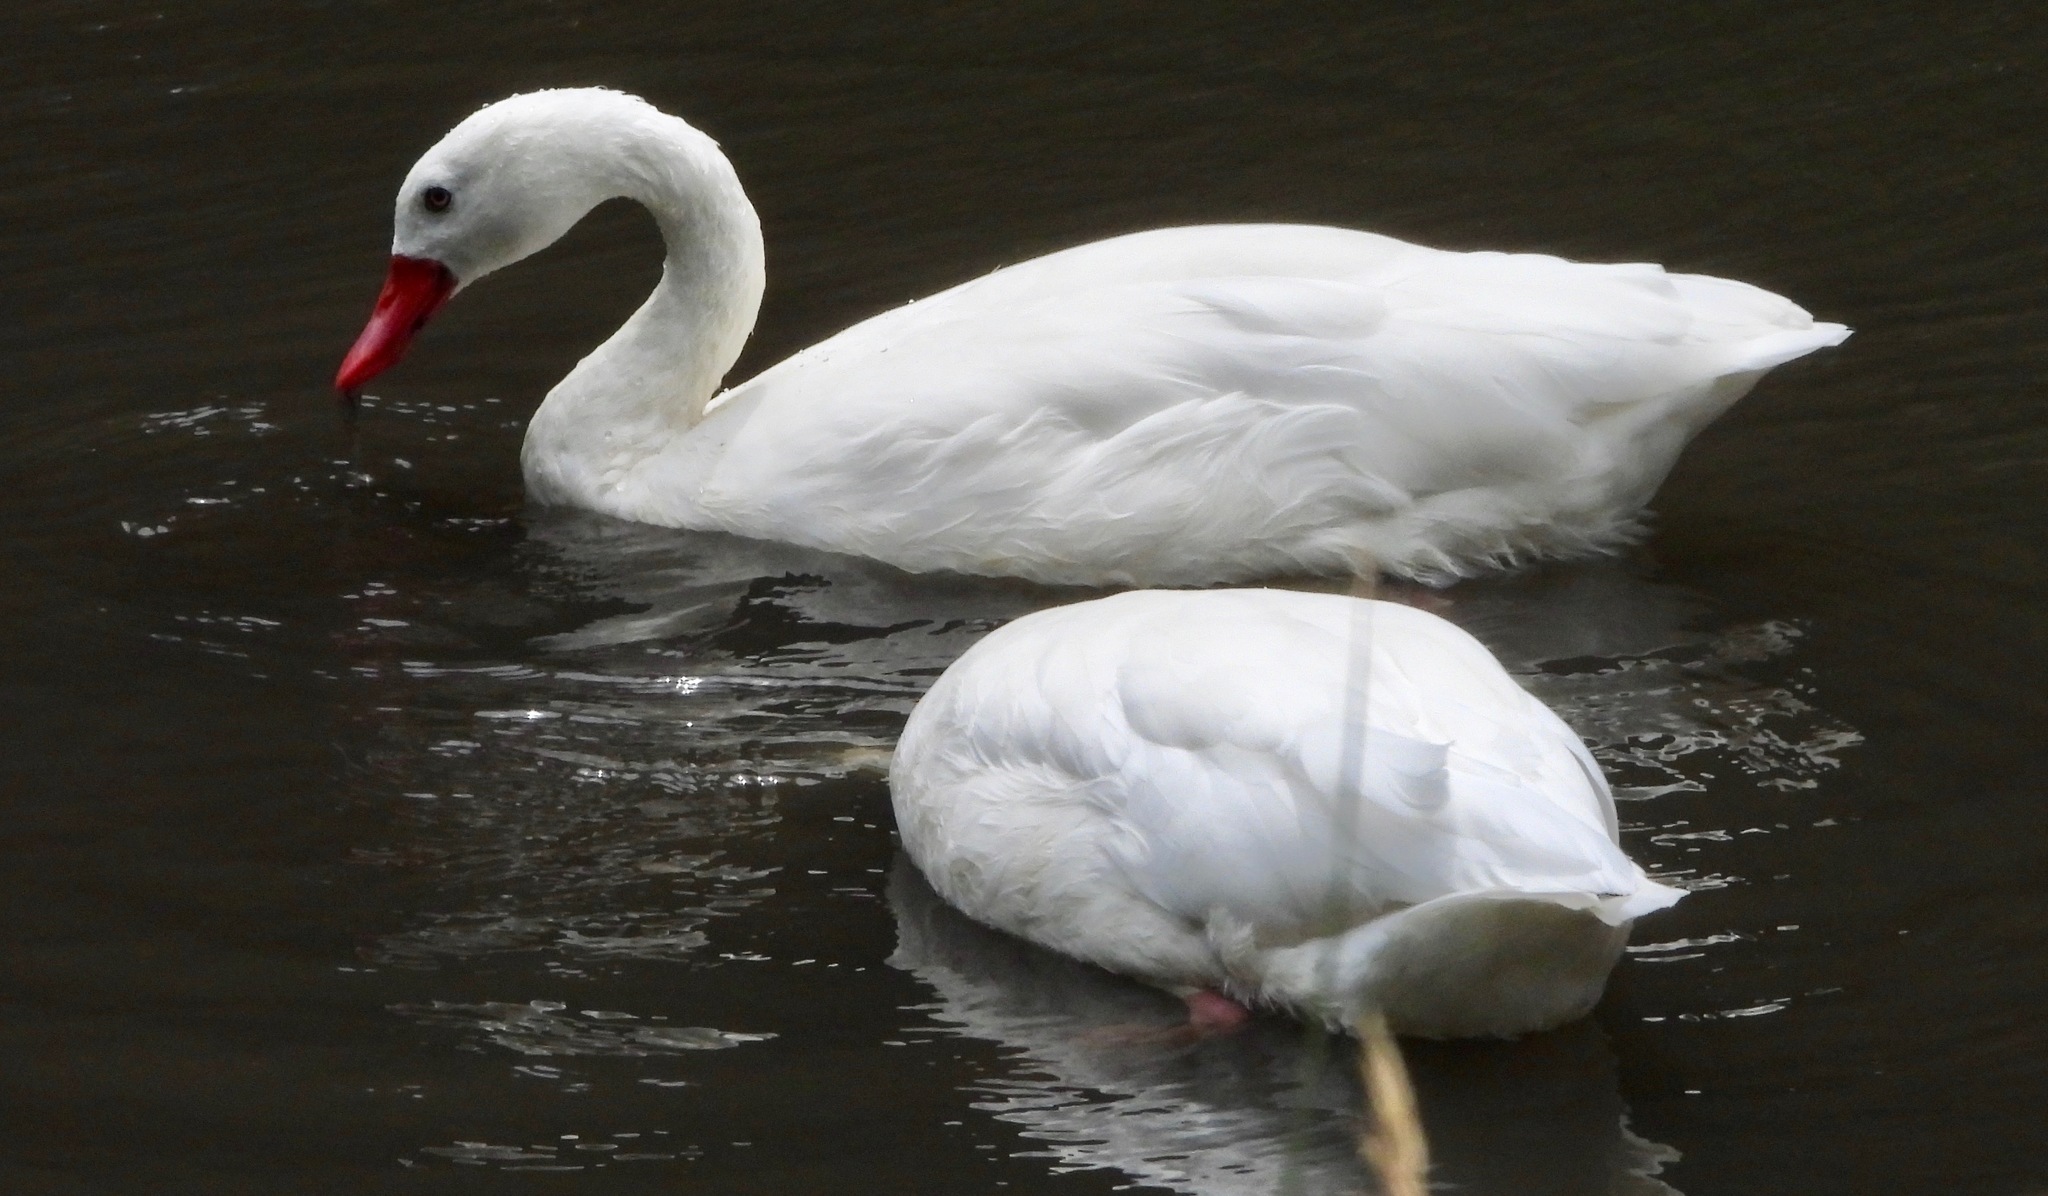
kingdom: Animalia
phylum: Chordata
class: Aves
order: Anseriformes
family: Anatidae
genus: Coscoroba
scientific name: Coscoroba coscoroba
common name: Coscoroba swan
